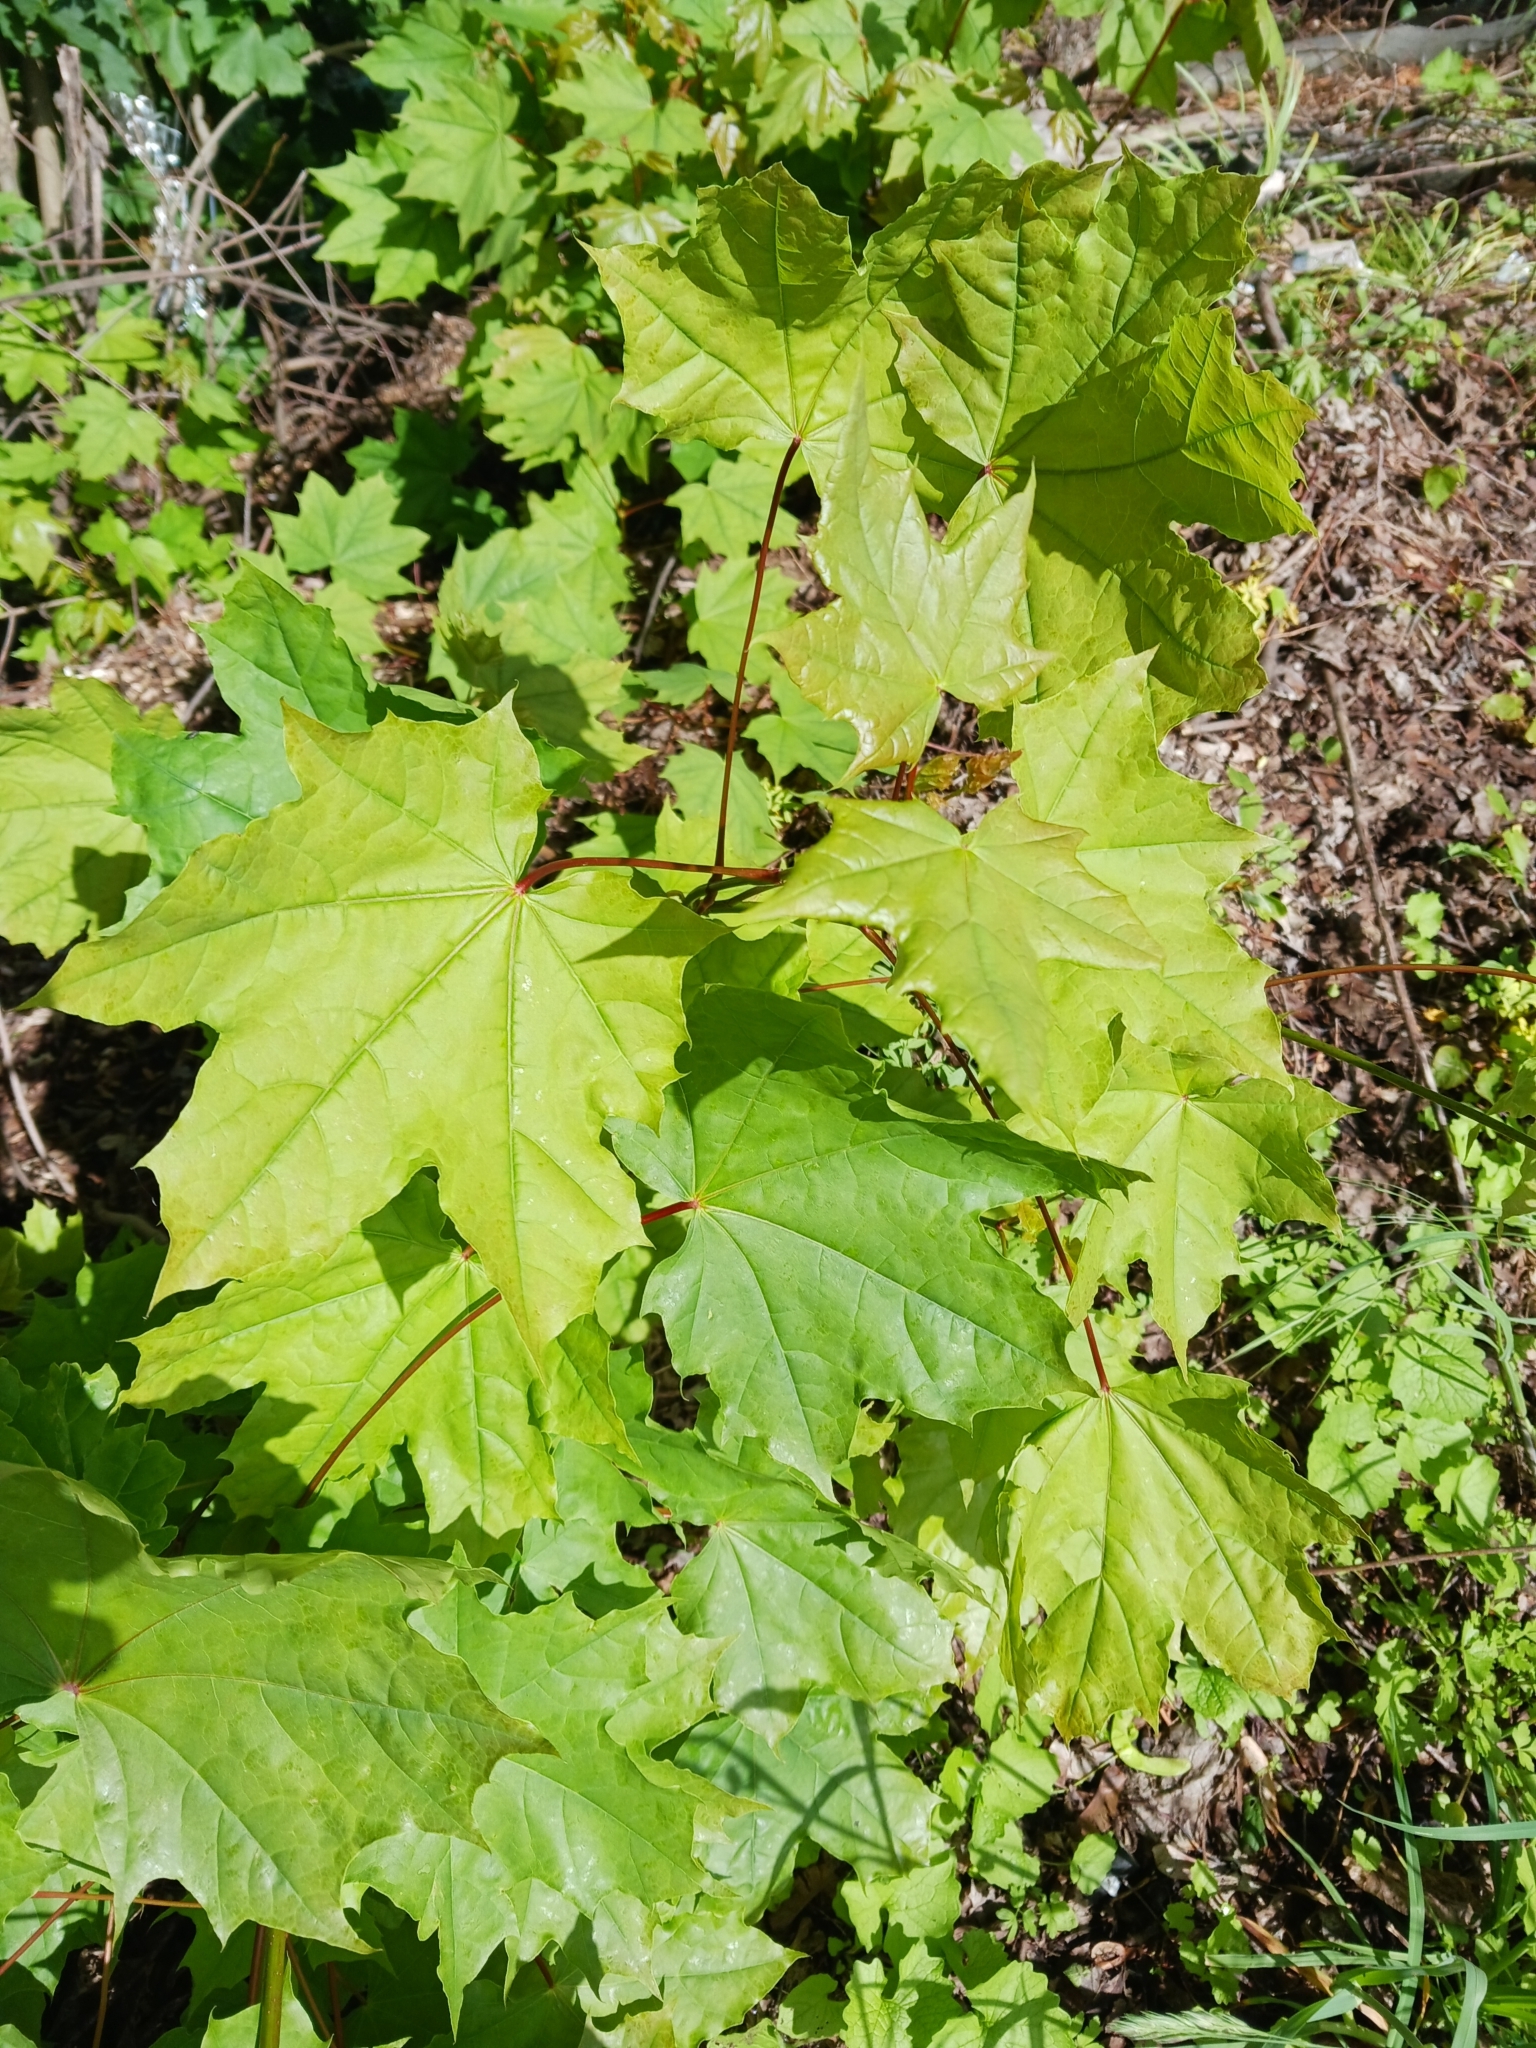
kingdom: Plantae
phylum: Tracheophyta
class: Magnoliopsida
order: Sapindales
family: Sapindaceae
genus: Acer
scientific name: Acer platanoides
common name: Norway maple
